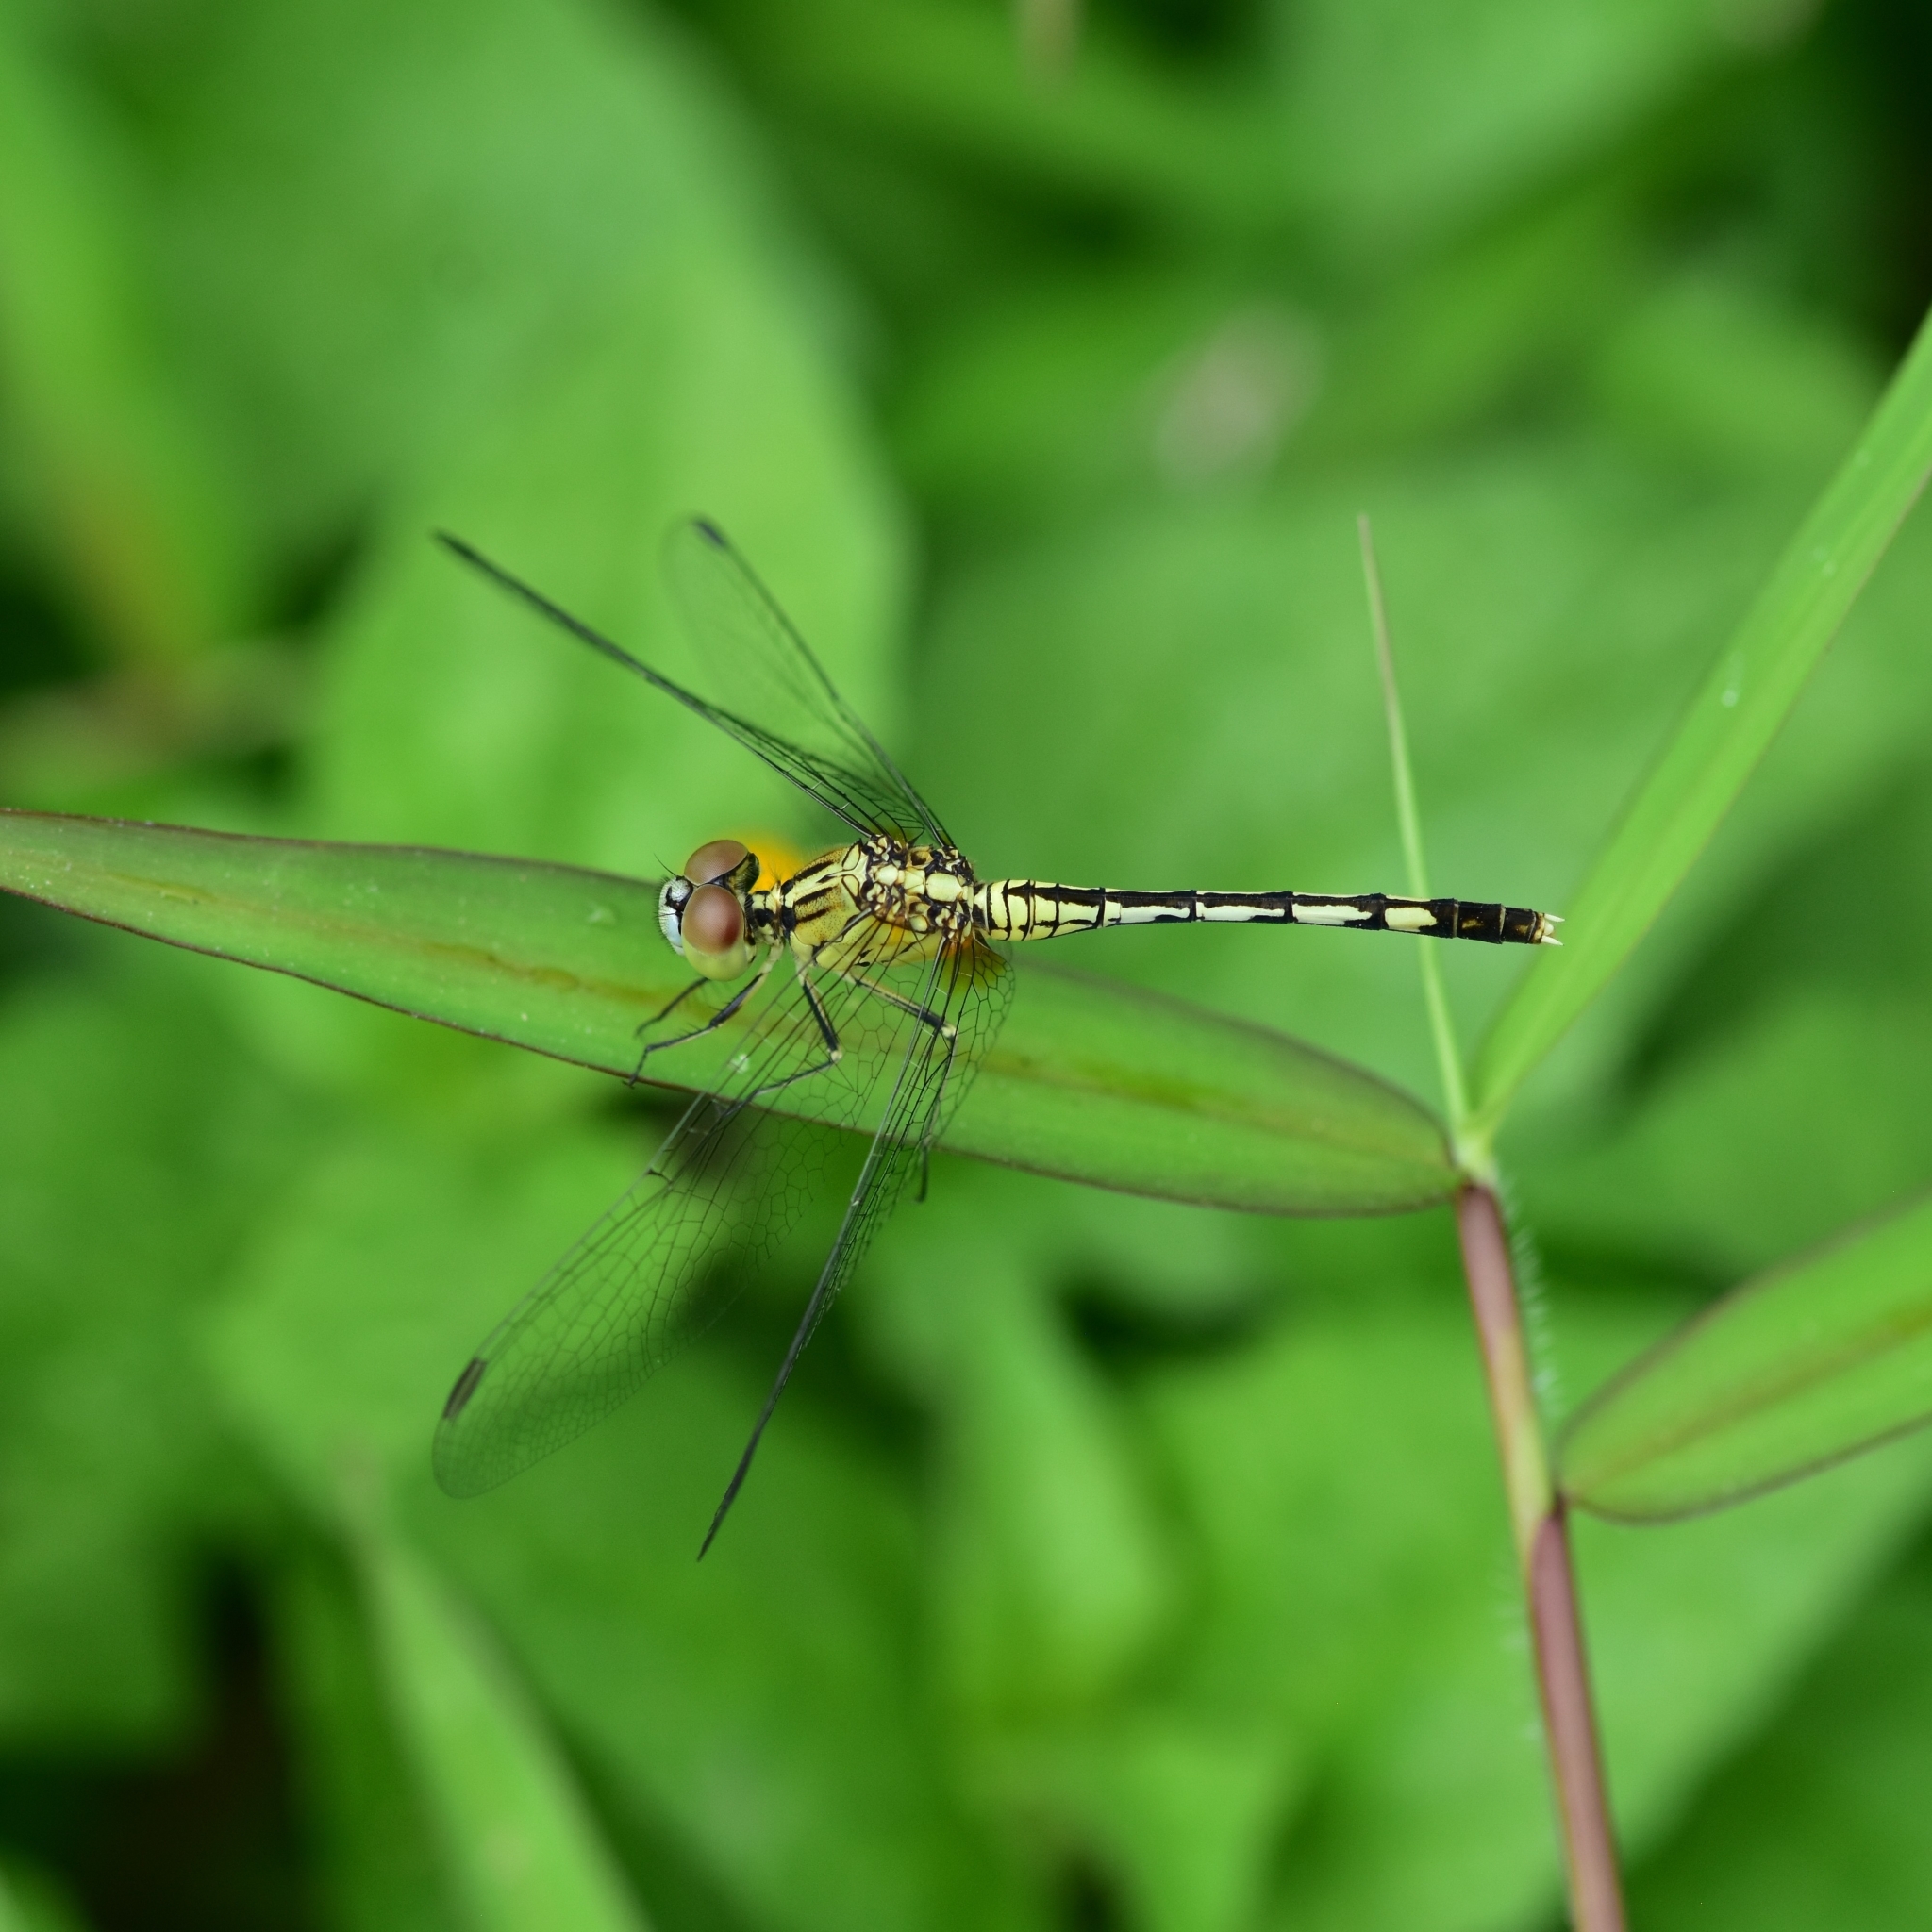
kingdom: Animalia
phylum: Arthropoda
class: Insecta
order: Odonata
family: Libellulidae
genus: Diplacodes
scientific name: Diplacodes trivialis
